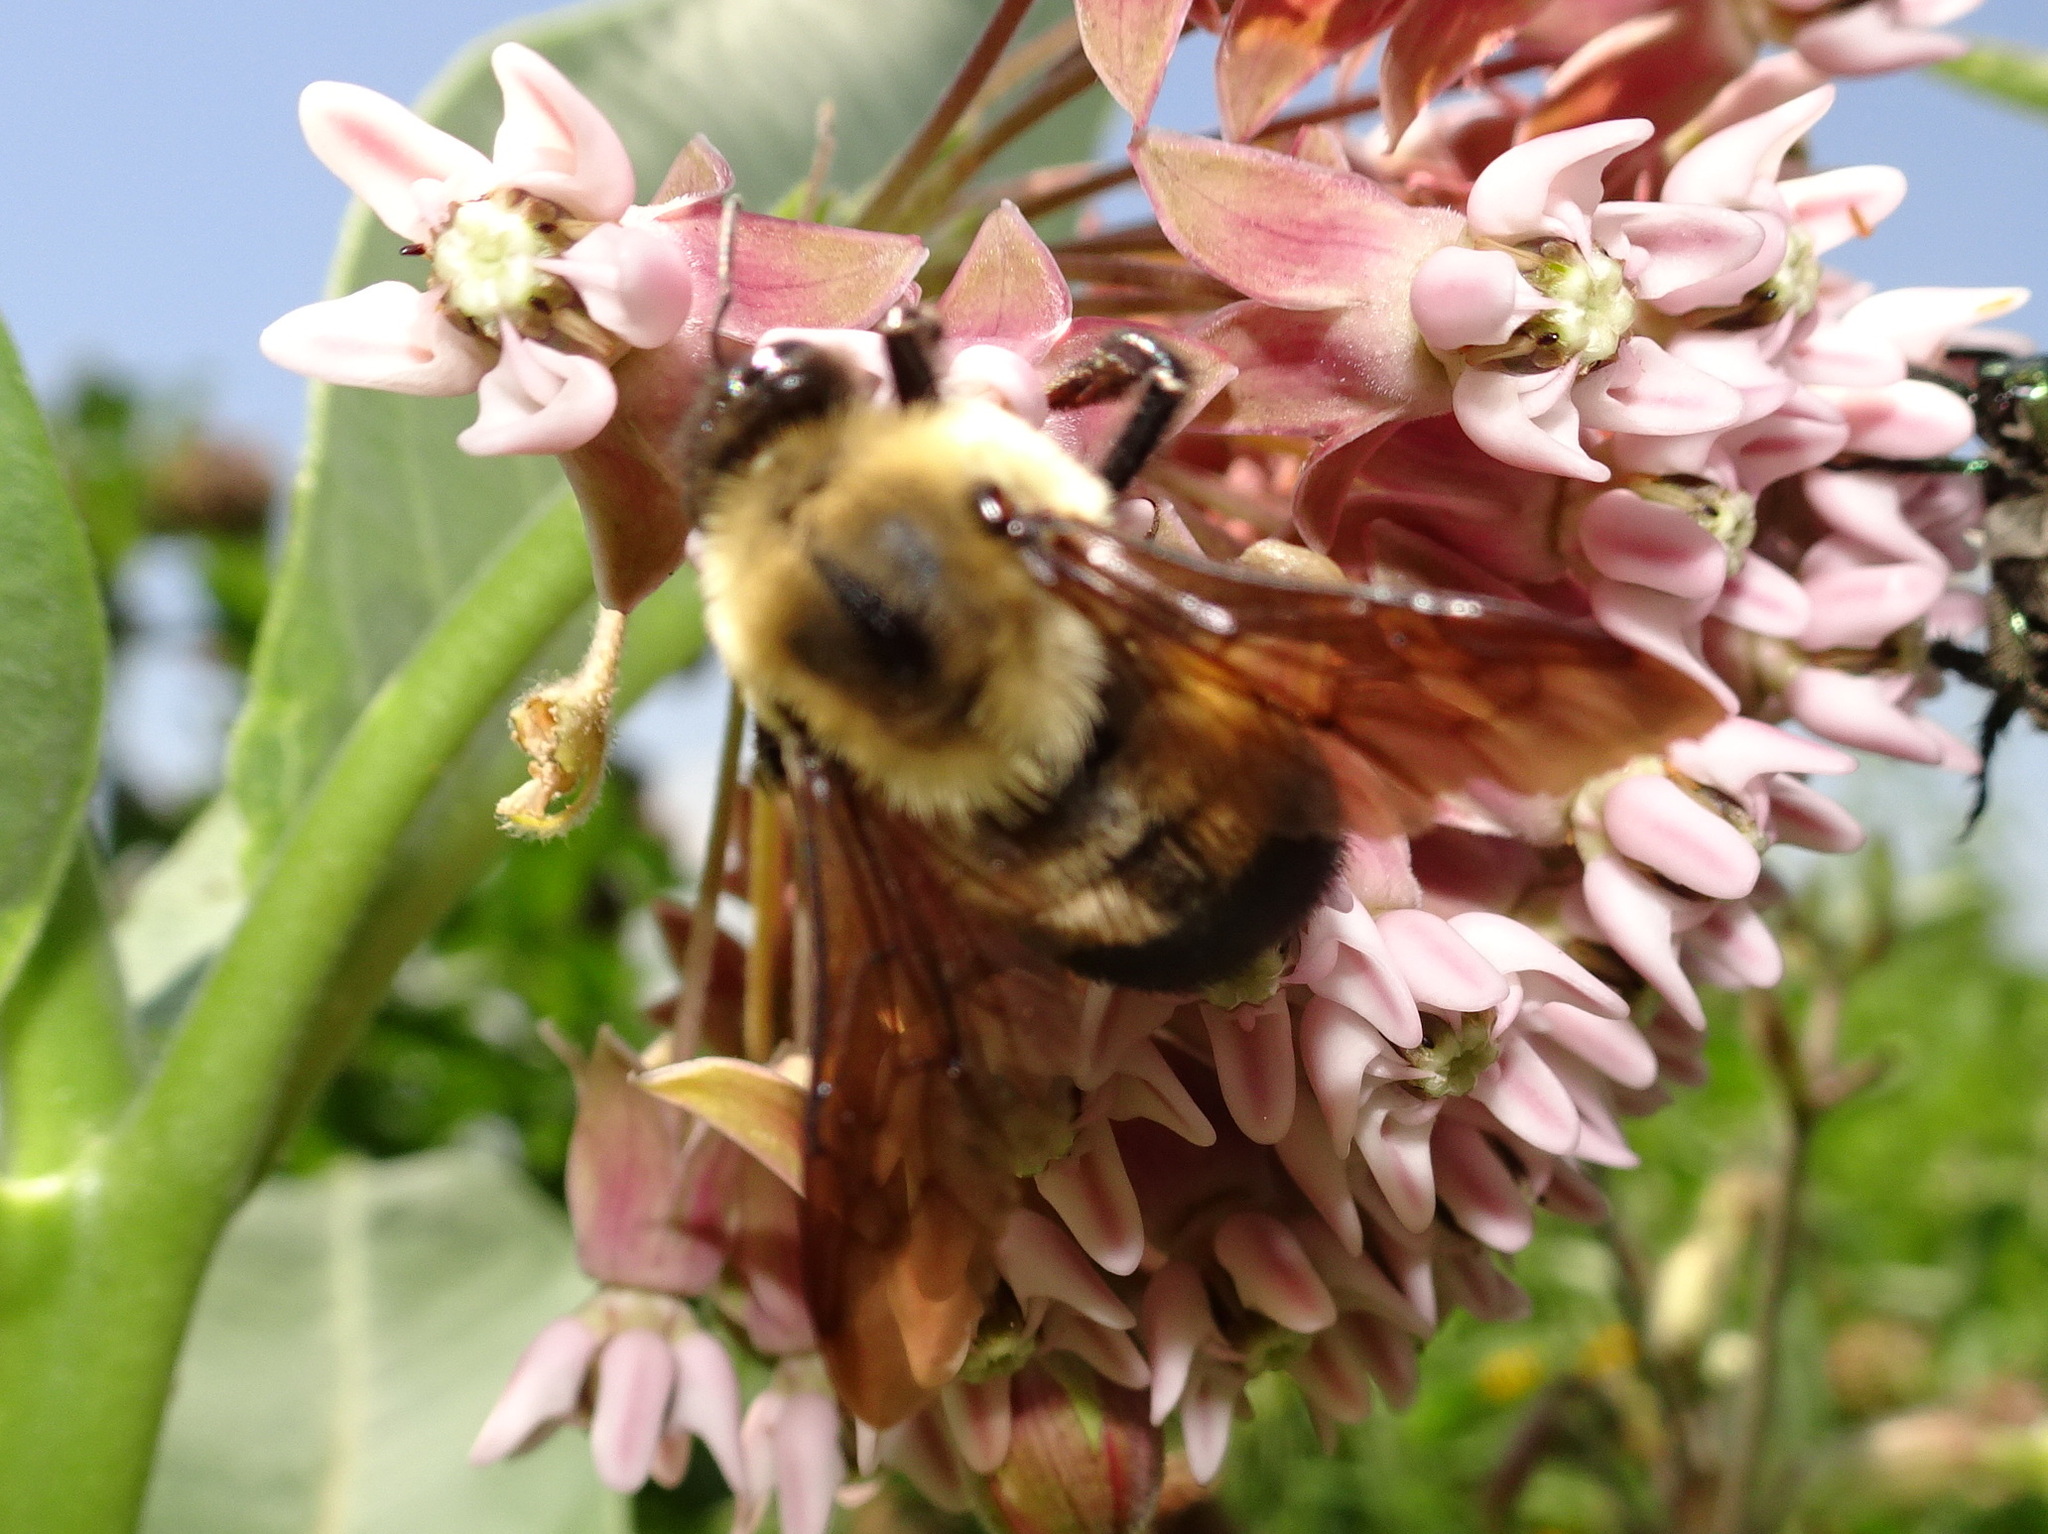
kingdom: Animalia
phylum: Arthropoda
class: Insecta
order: Hymenoptera
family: Apidae
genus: Bombus
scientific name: Bombus griseocollis
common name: Brown-belted bumble bee
